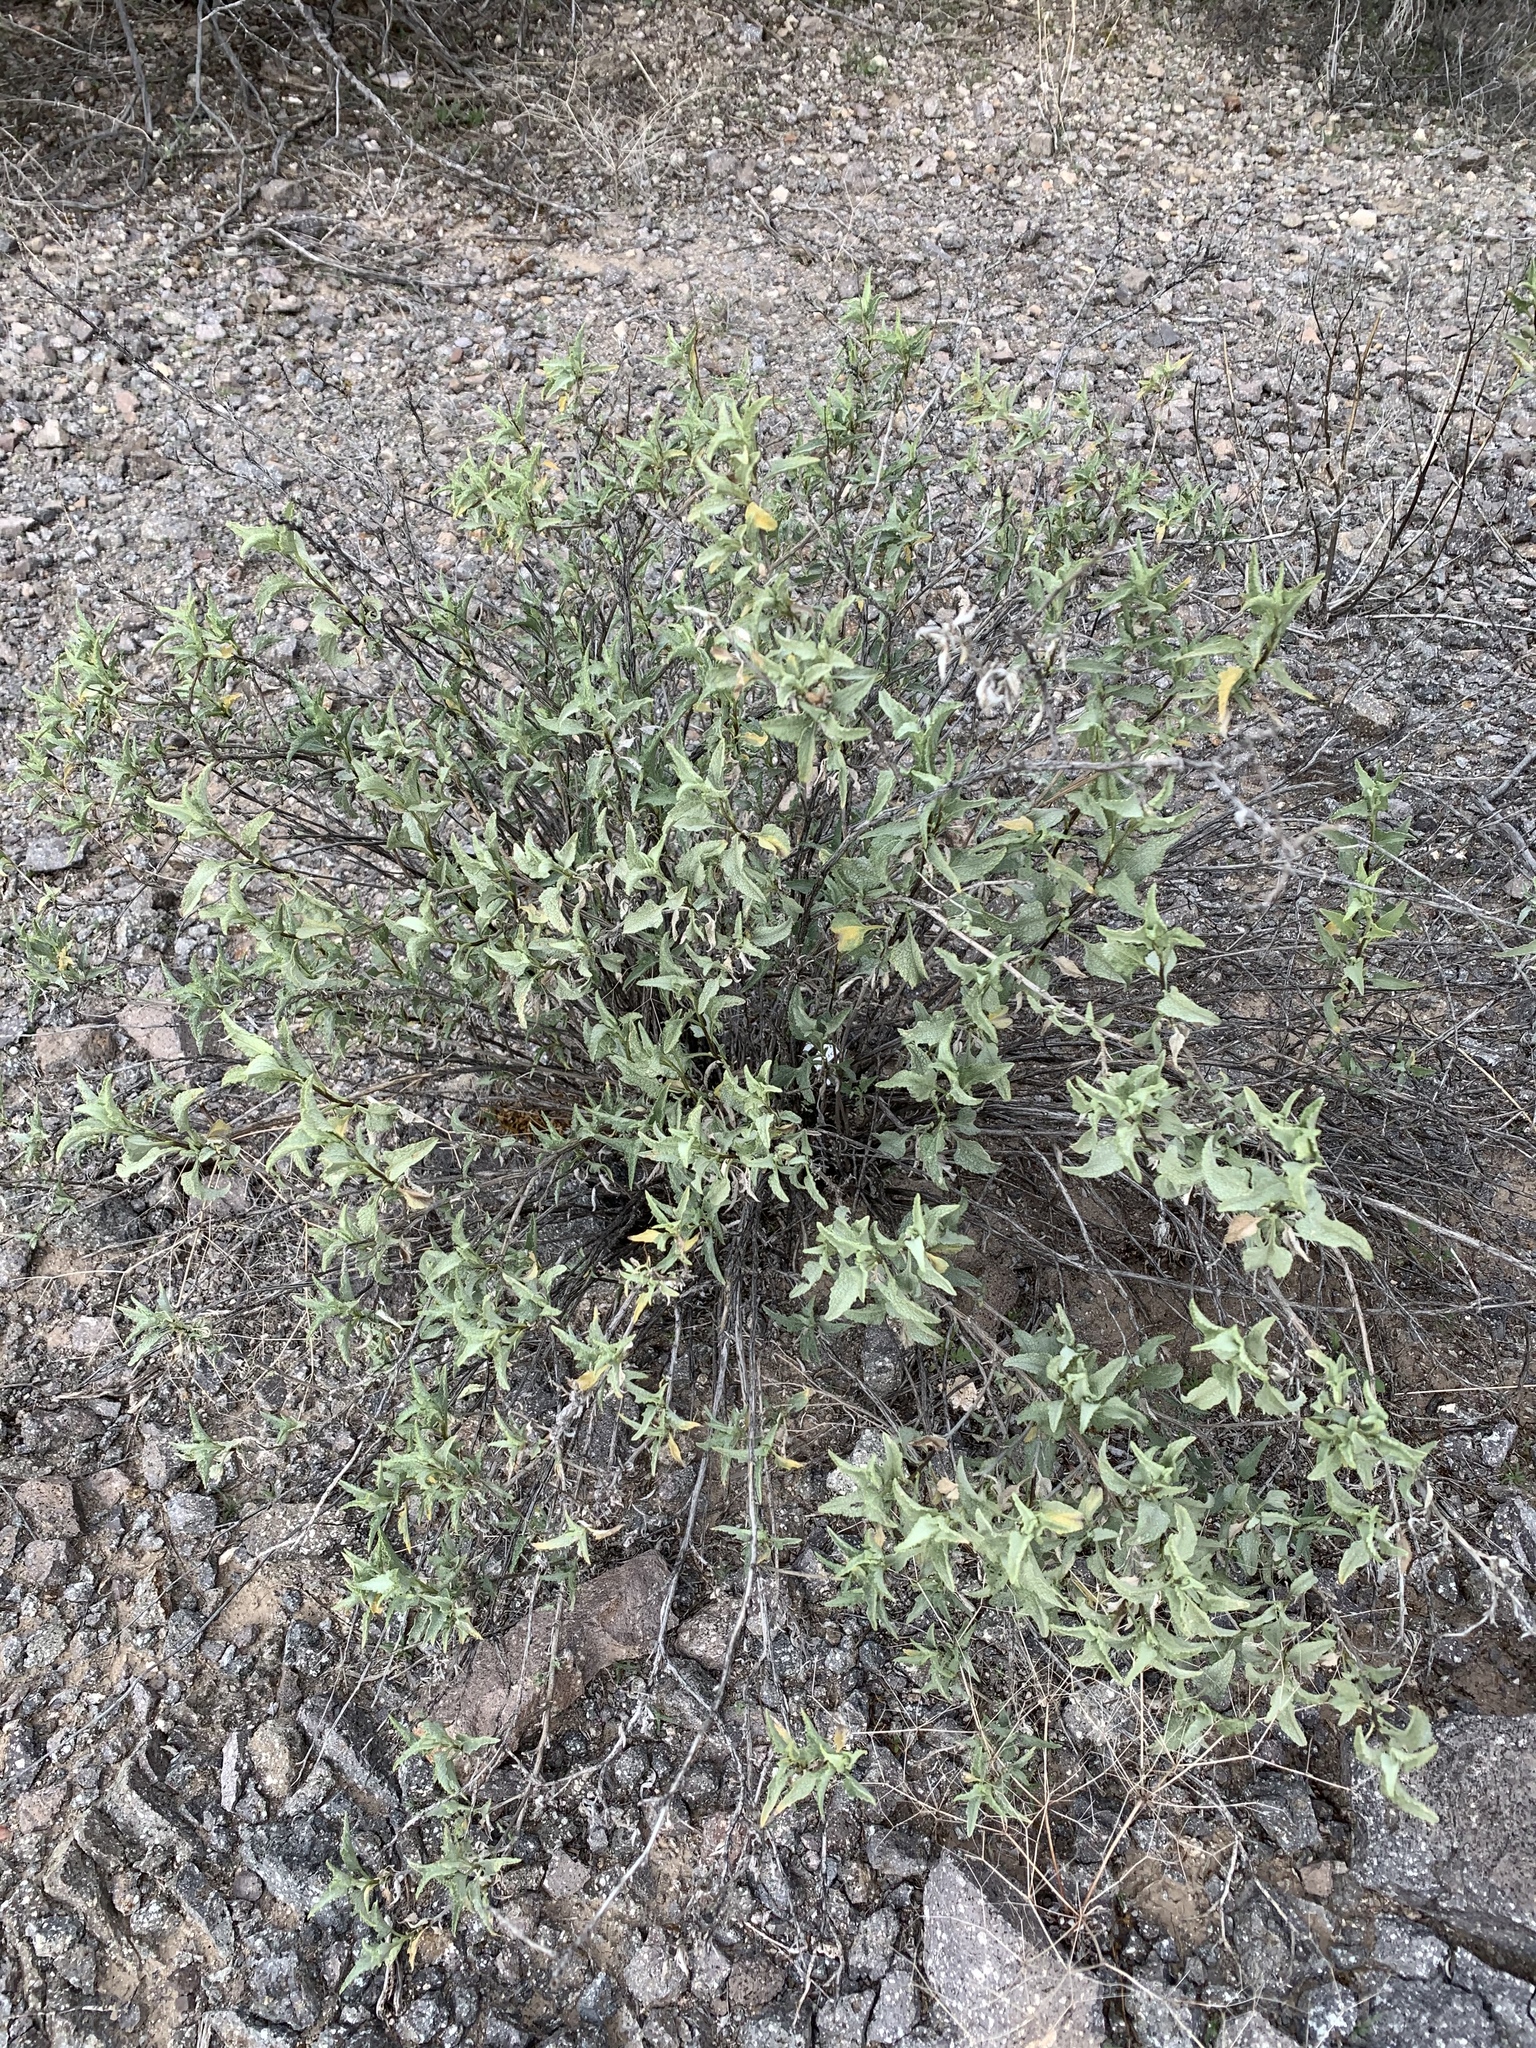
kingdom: Plantae
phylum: Tracheophyta
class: Magnoliopsida
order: Asterales
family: Asteraceae
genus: Ambrosia
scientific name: Ambrosia deltoidea
